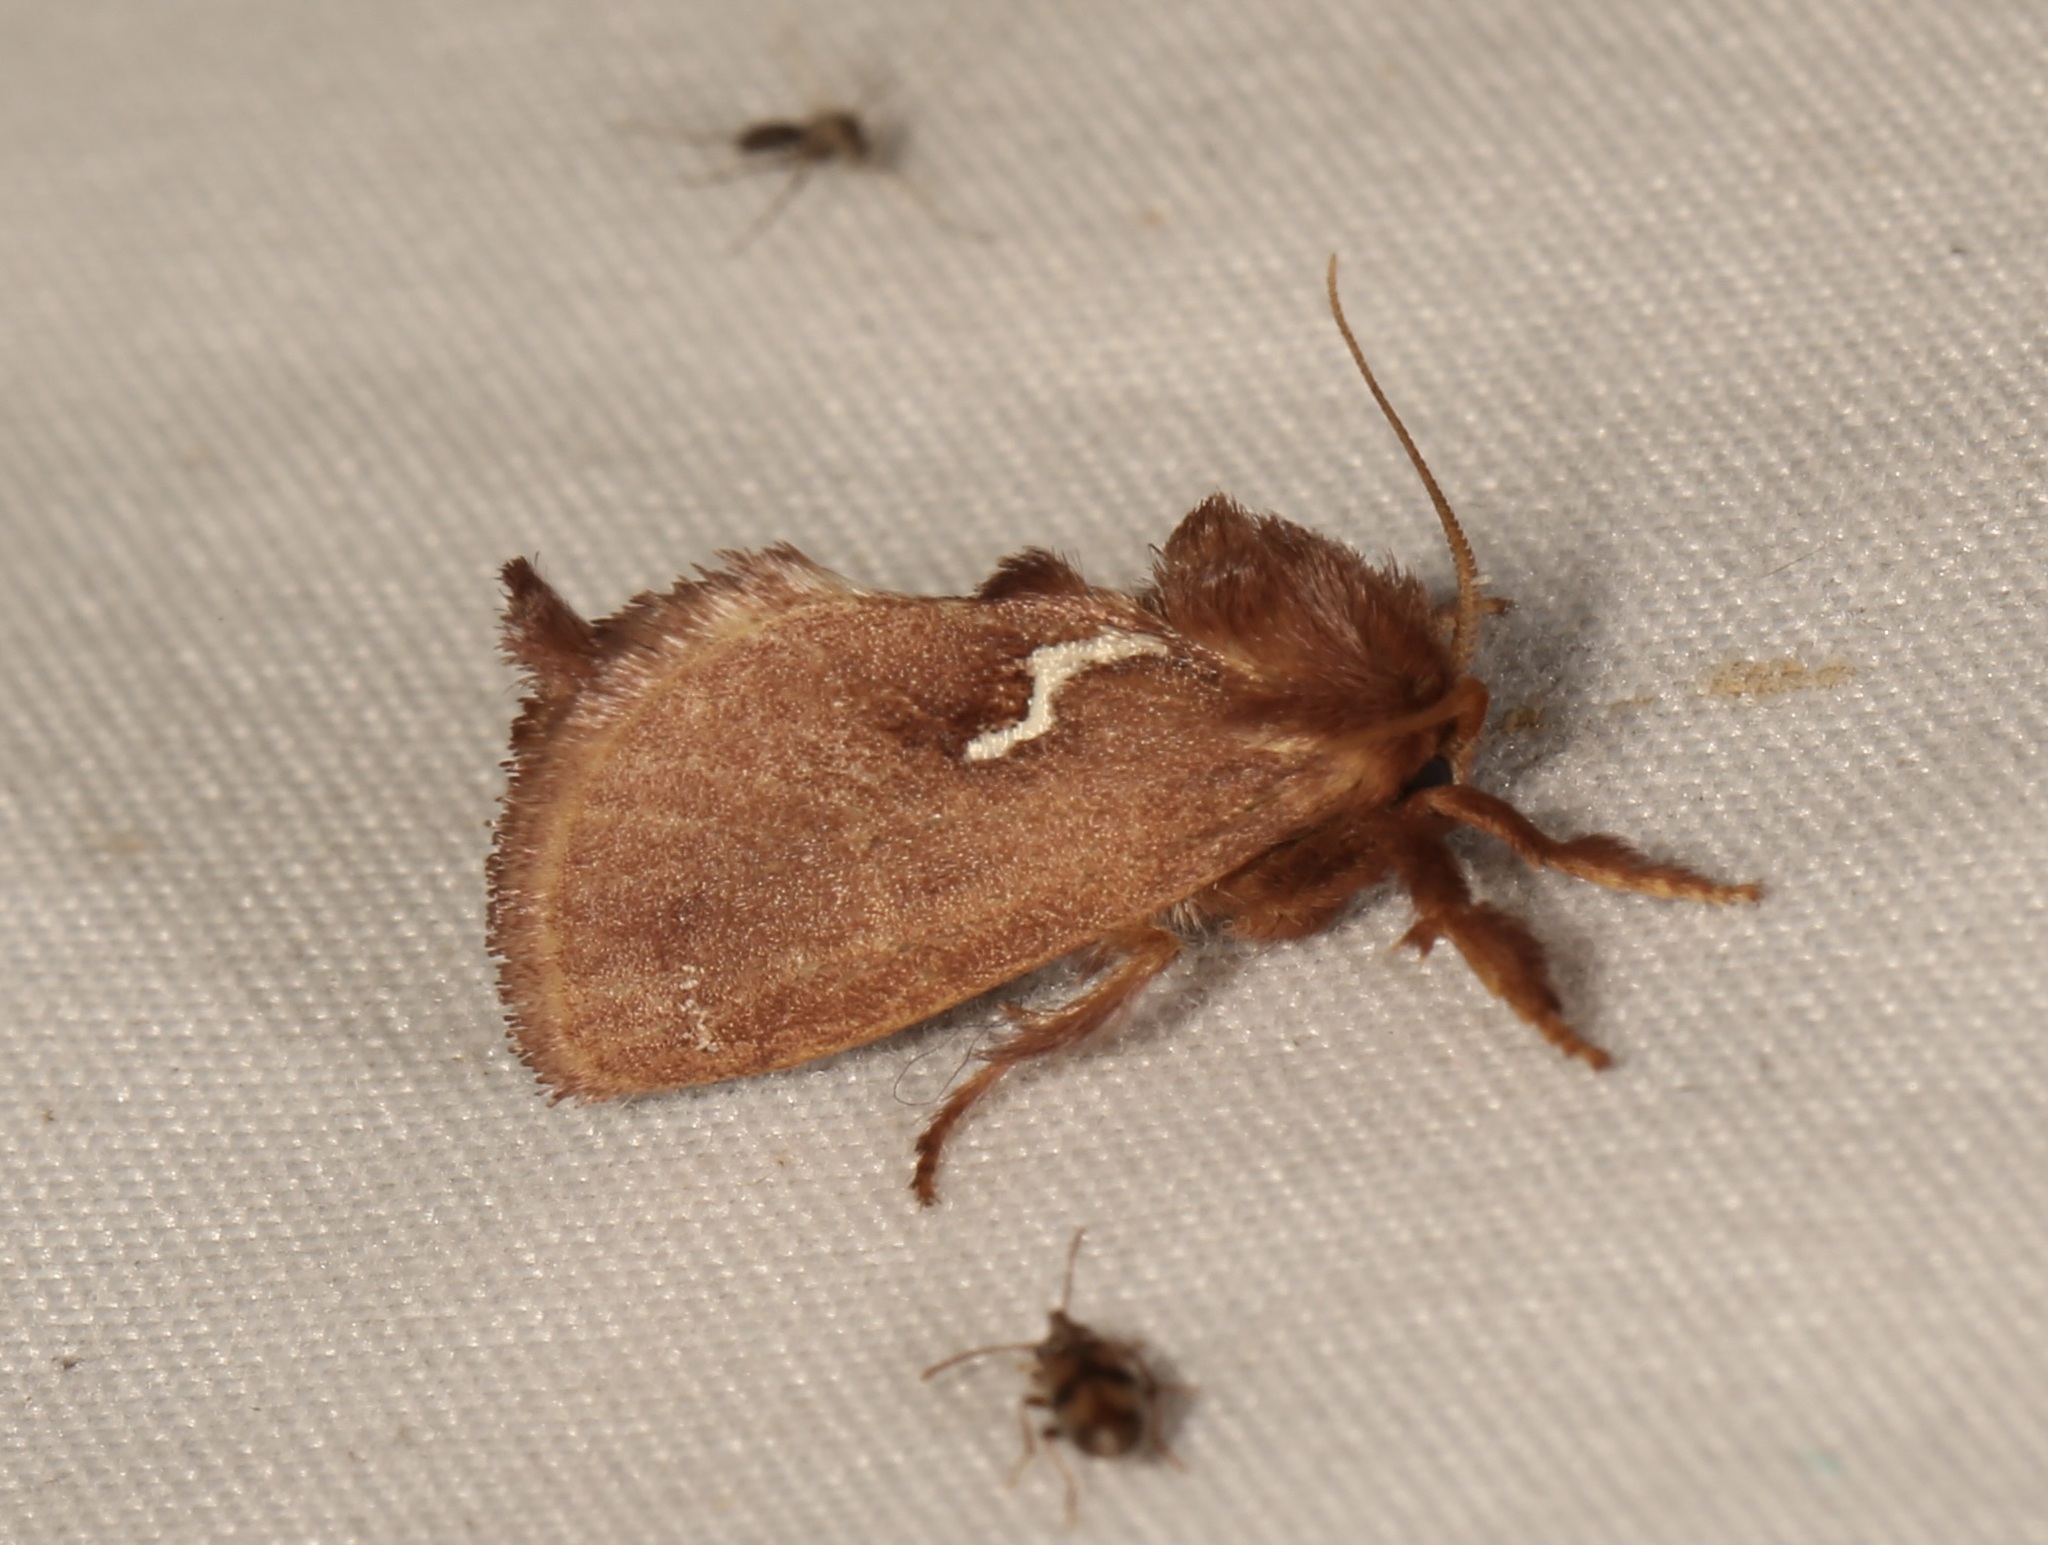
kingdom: Animalia
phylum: Arthropoda
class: Insecta
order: Lepidoptera
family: Limacodidae
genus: Euclea
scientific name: Euclea obliqua
